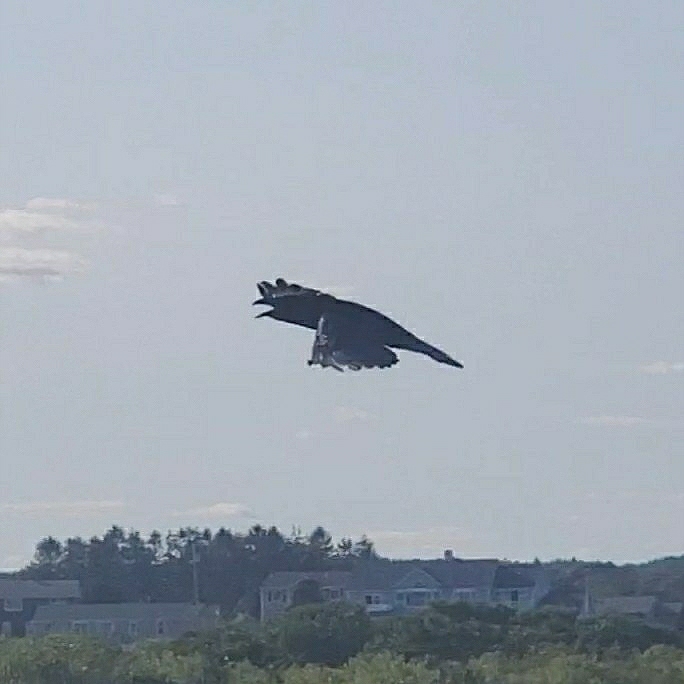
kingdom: Animalia
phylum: Chordata
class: Aves
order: Passeriformes
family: Corvidae
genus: Corvus
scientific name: Corvus corax
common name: Common raven
